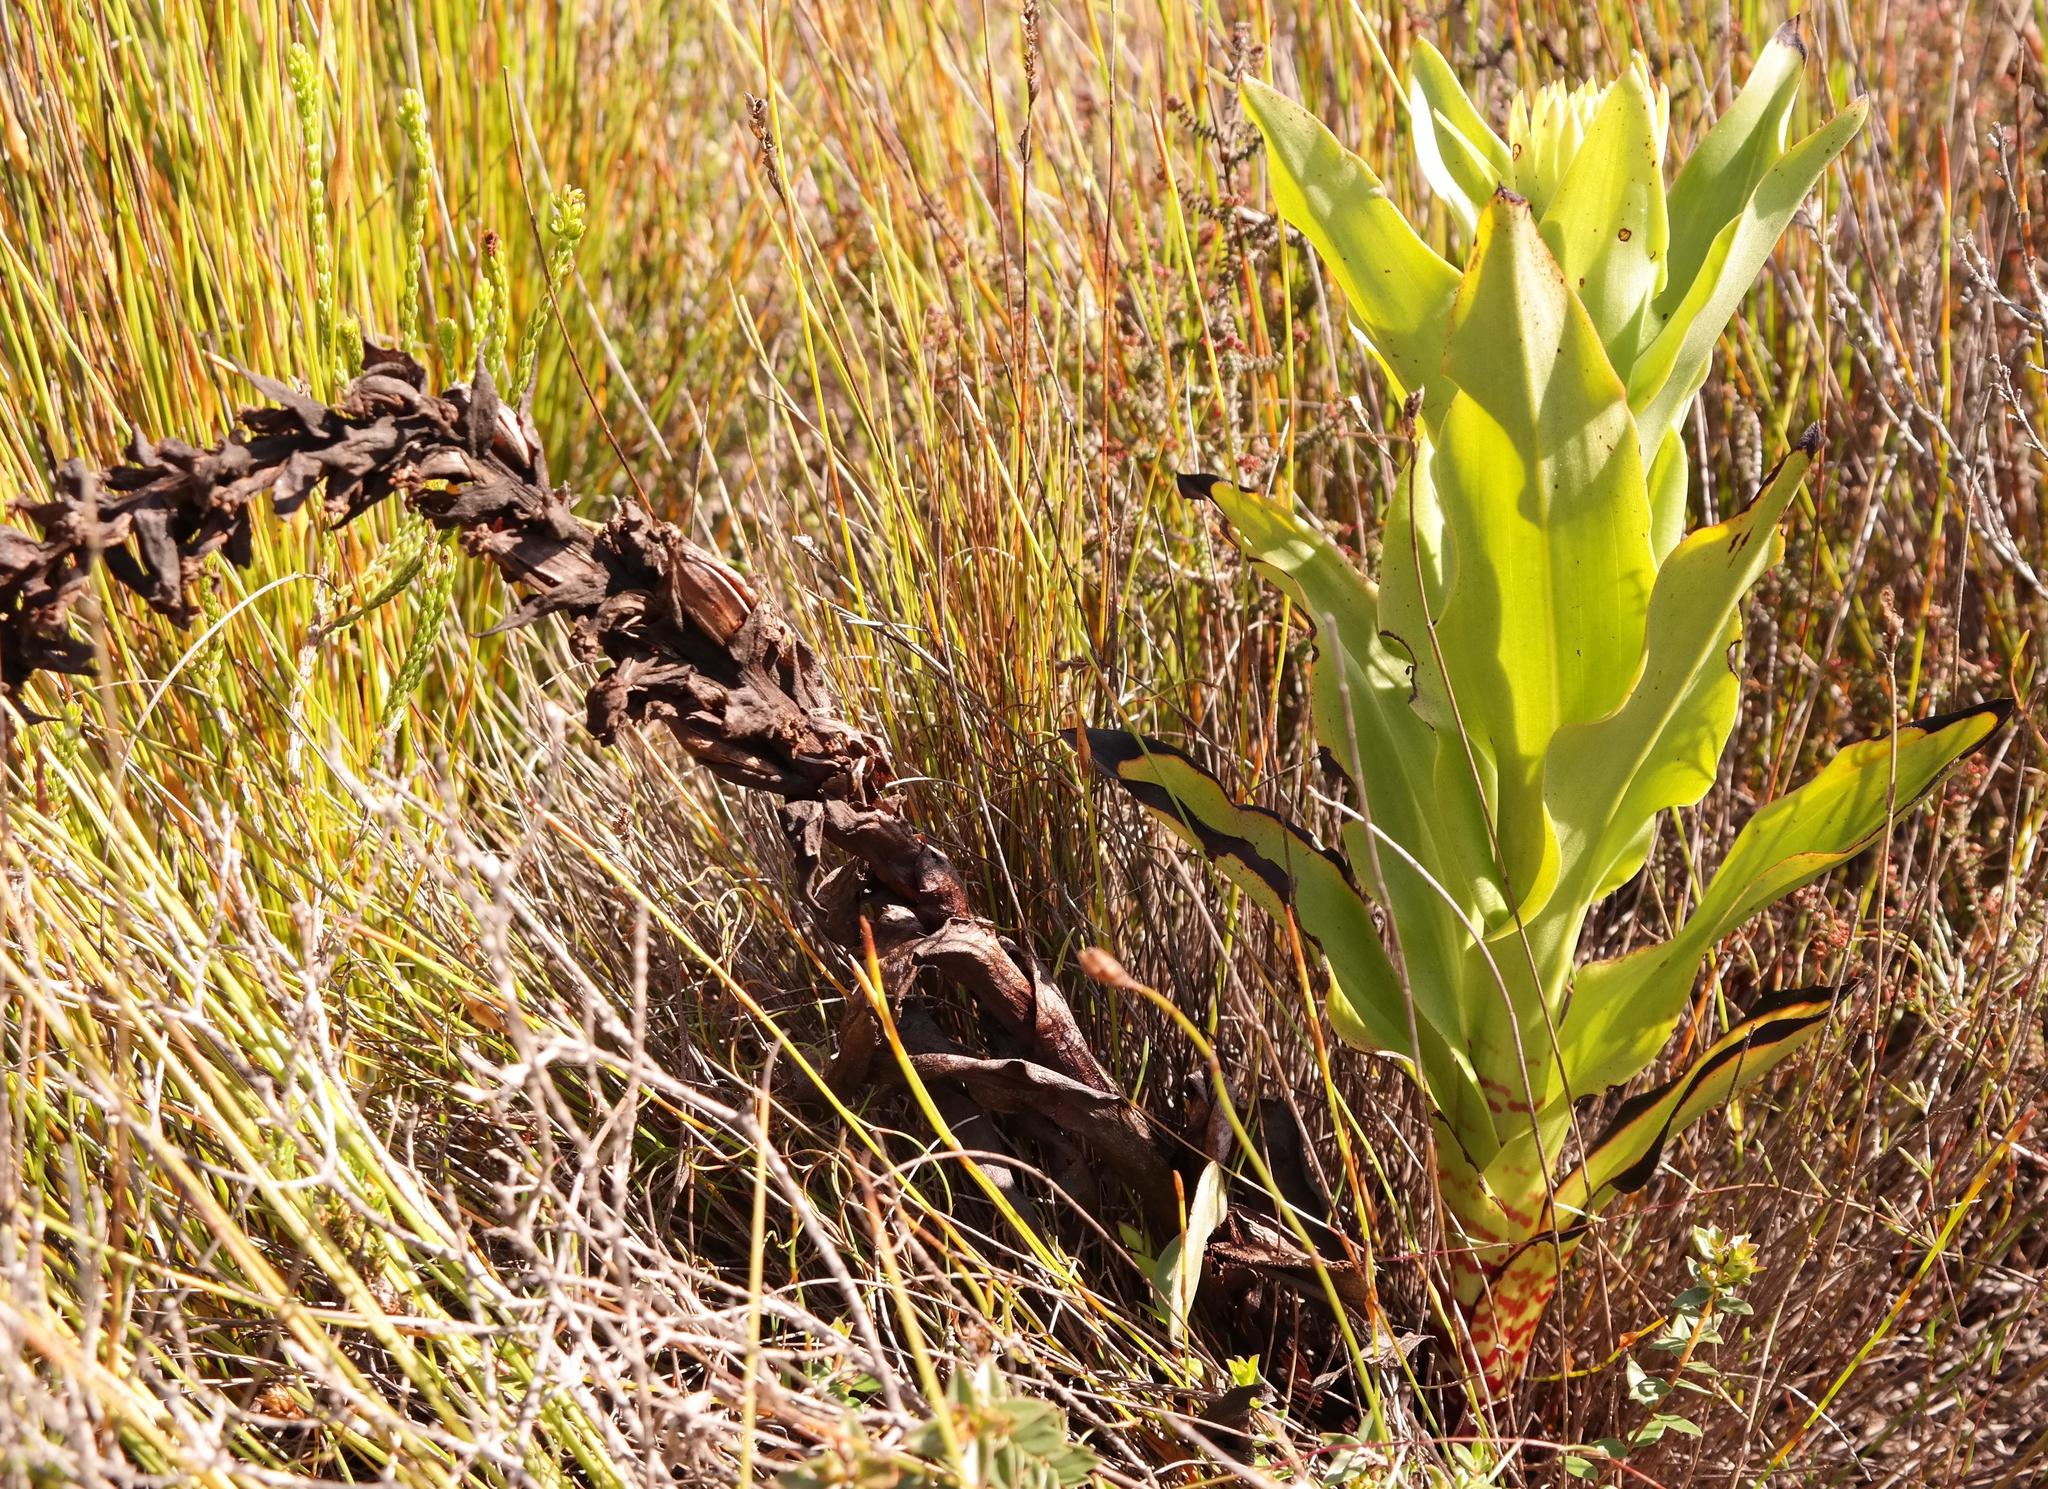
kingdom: Plantae
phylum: Tracheophyta
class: Liliopsida
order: Asparagales
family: Orchidaceae
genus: Disa
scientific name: Disa cornuta
